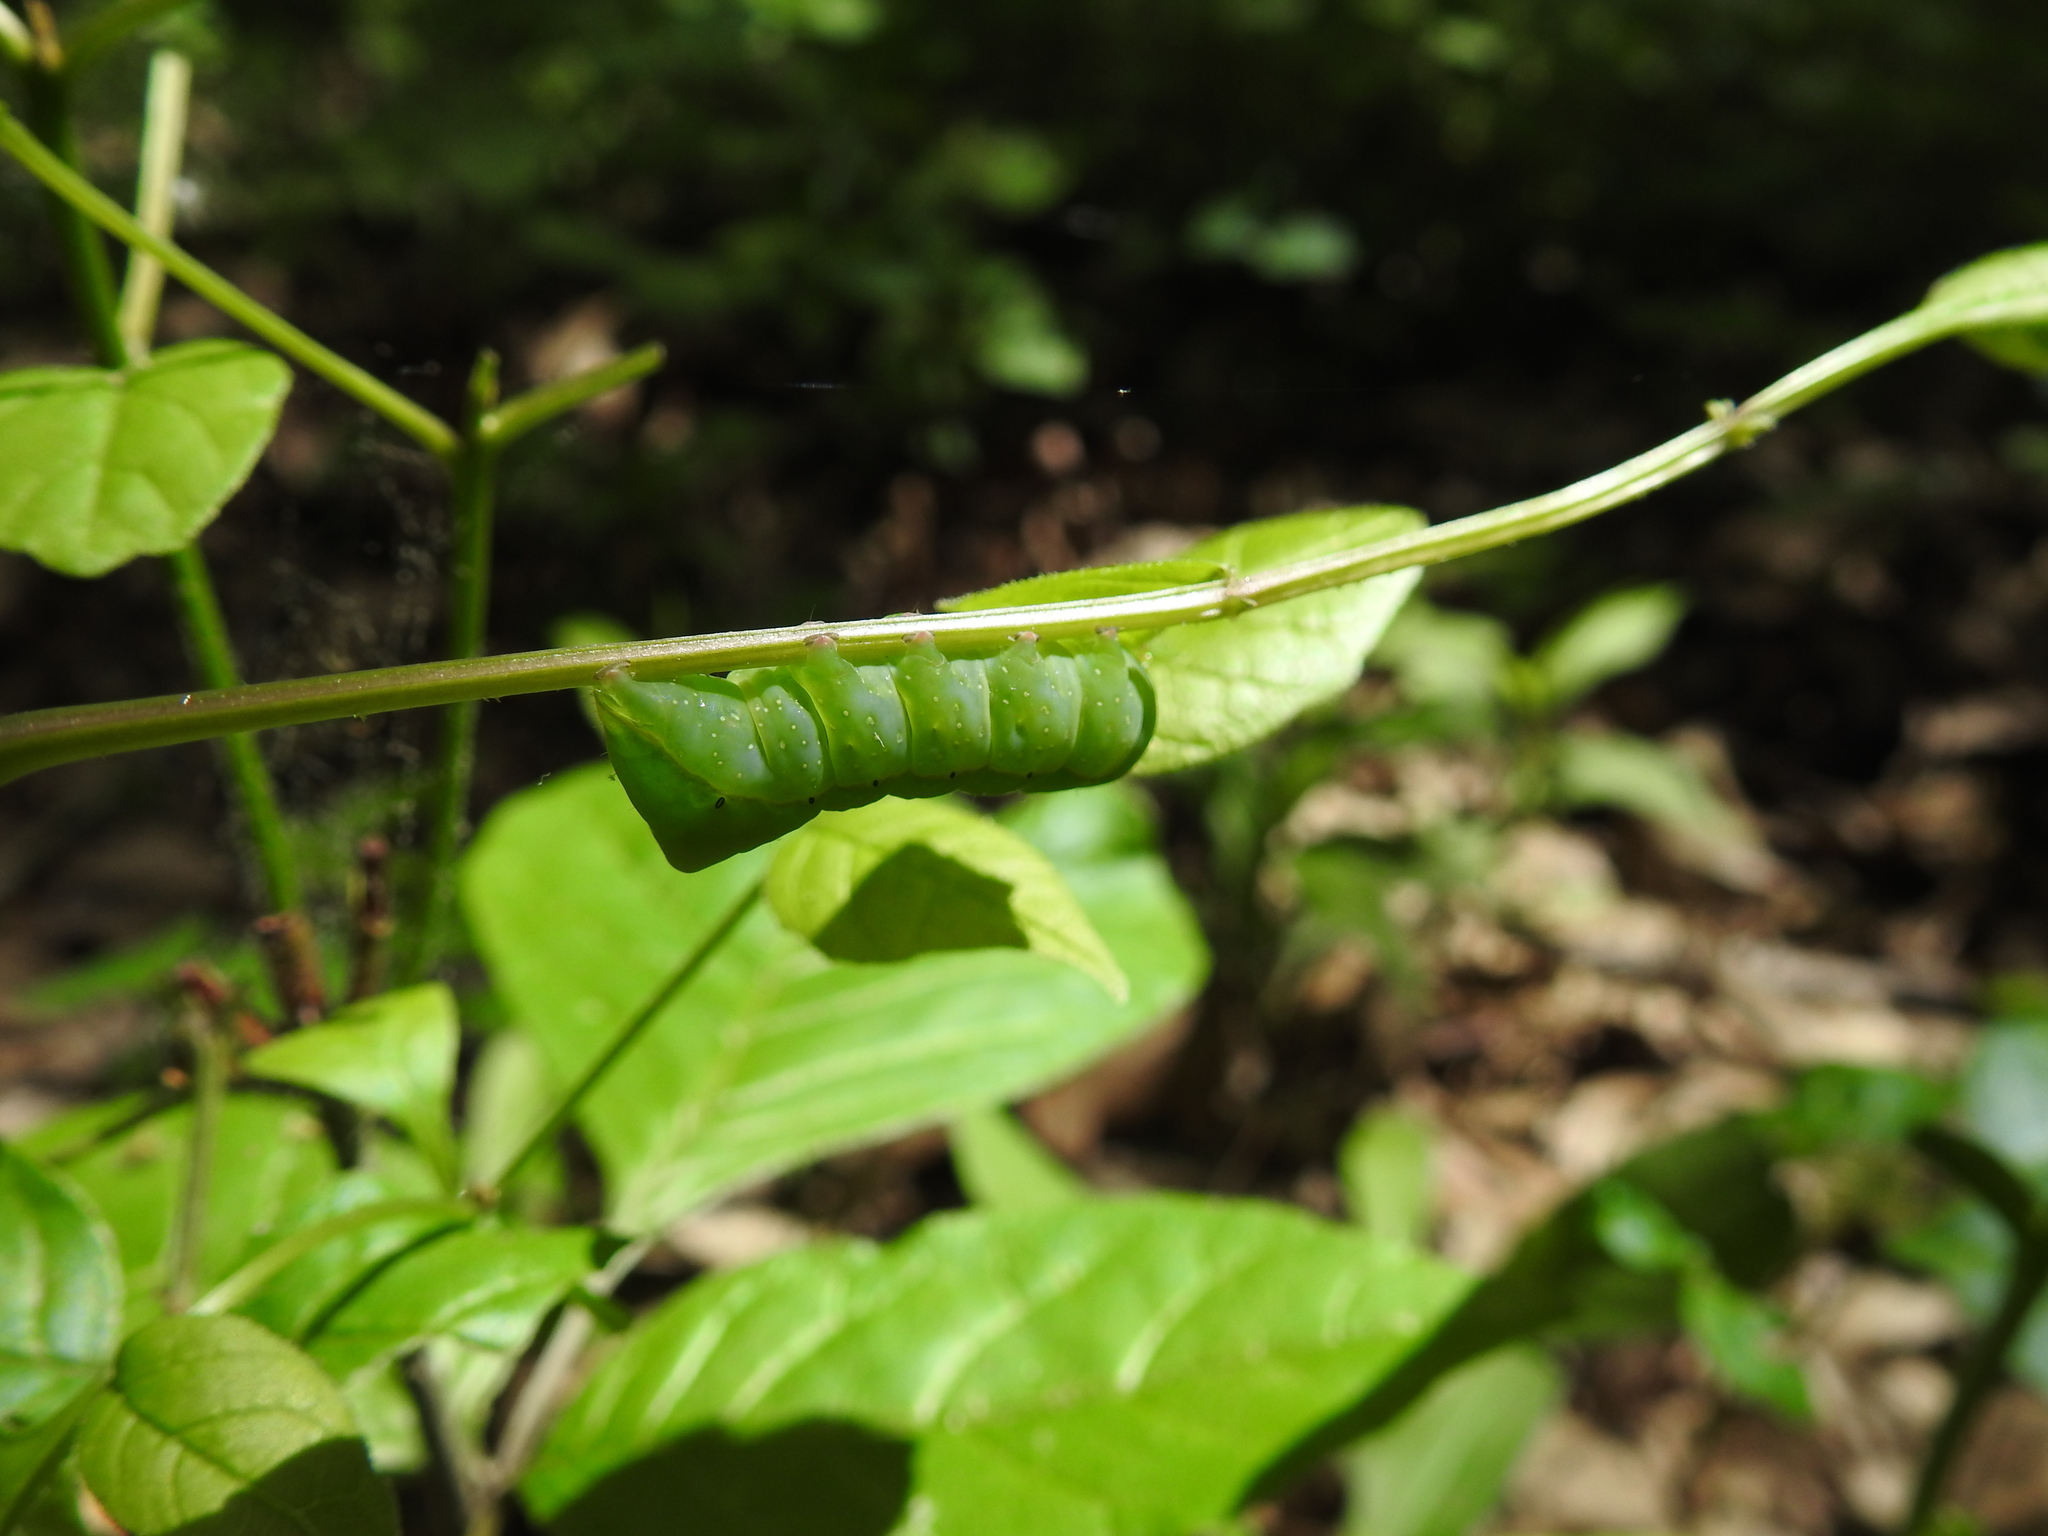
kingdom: Animalia
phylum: Arthropoda
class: Insecta
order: Lepidoptera
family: Noctuidae
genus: Amphipyra
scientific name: Amphipyra pyramidoides
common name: American copper underwing
